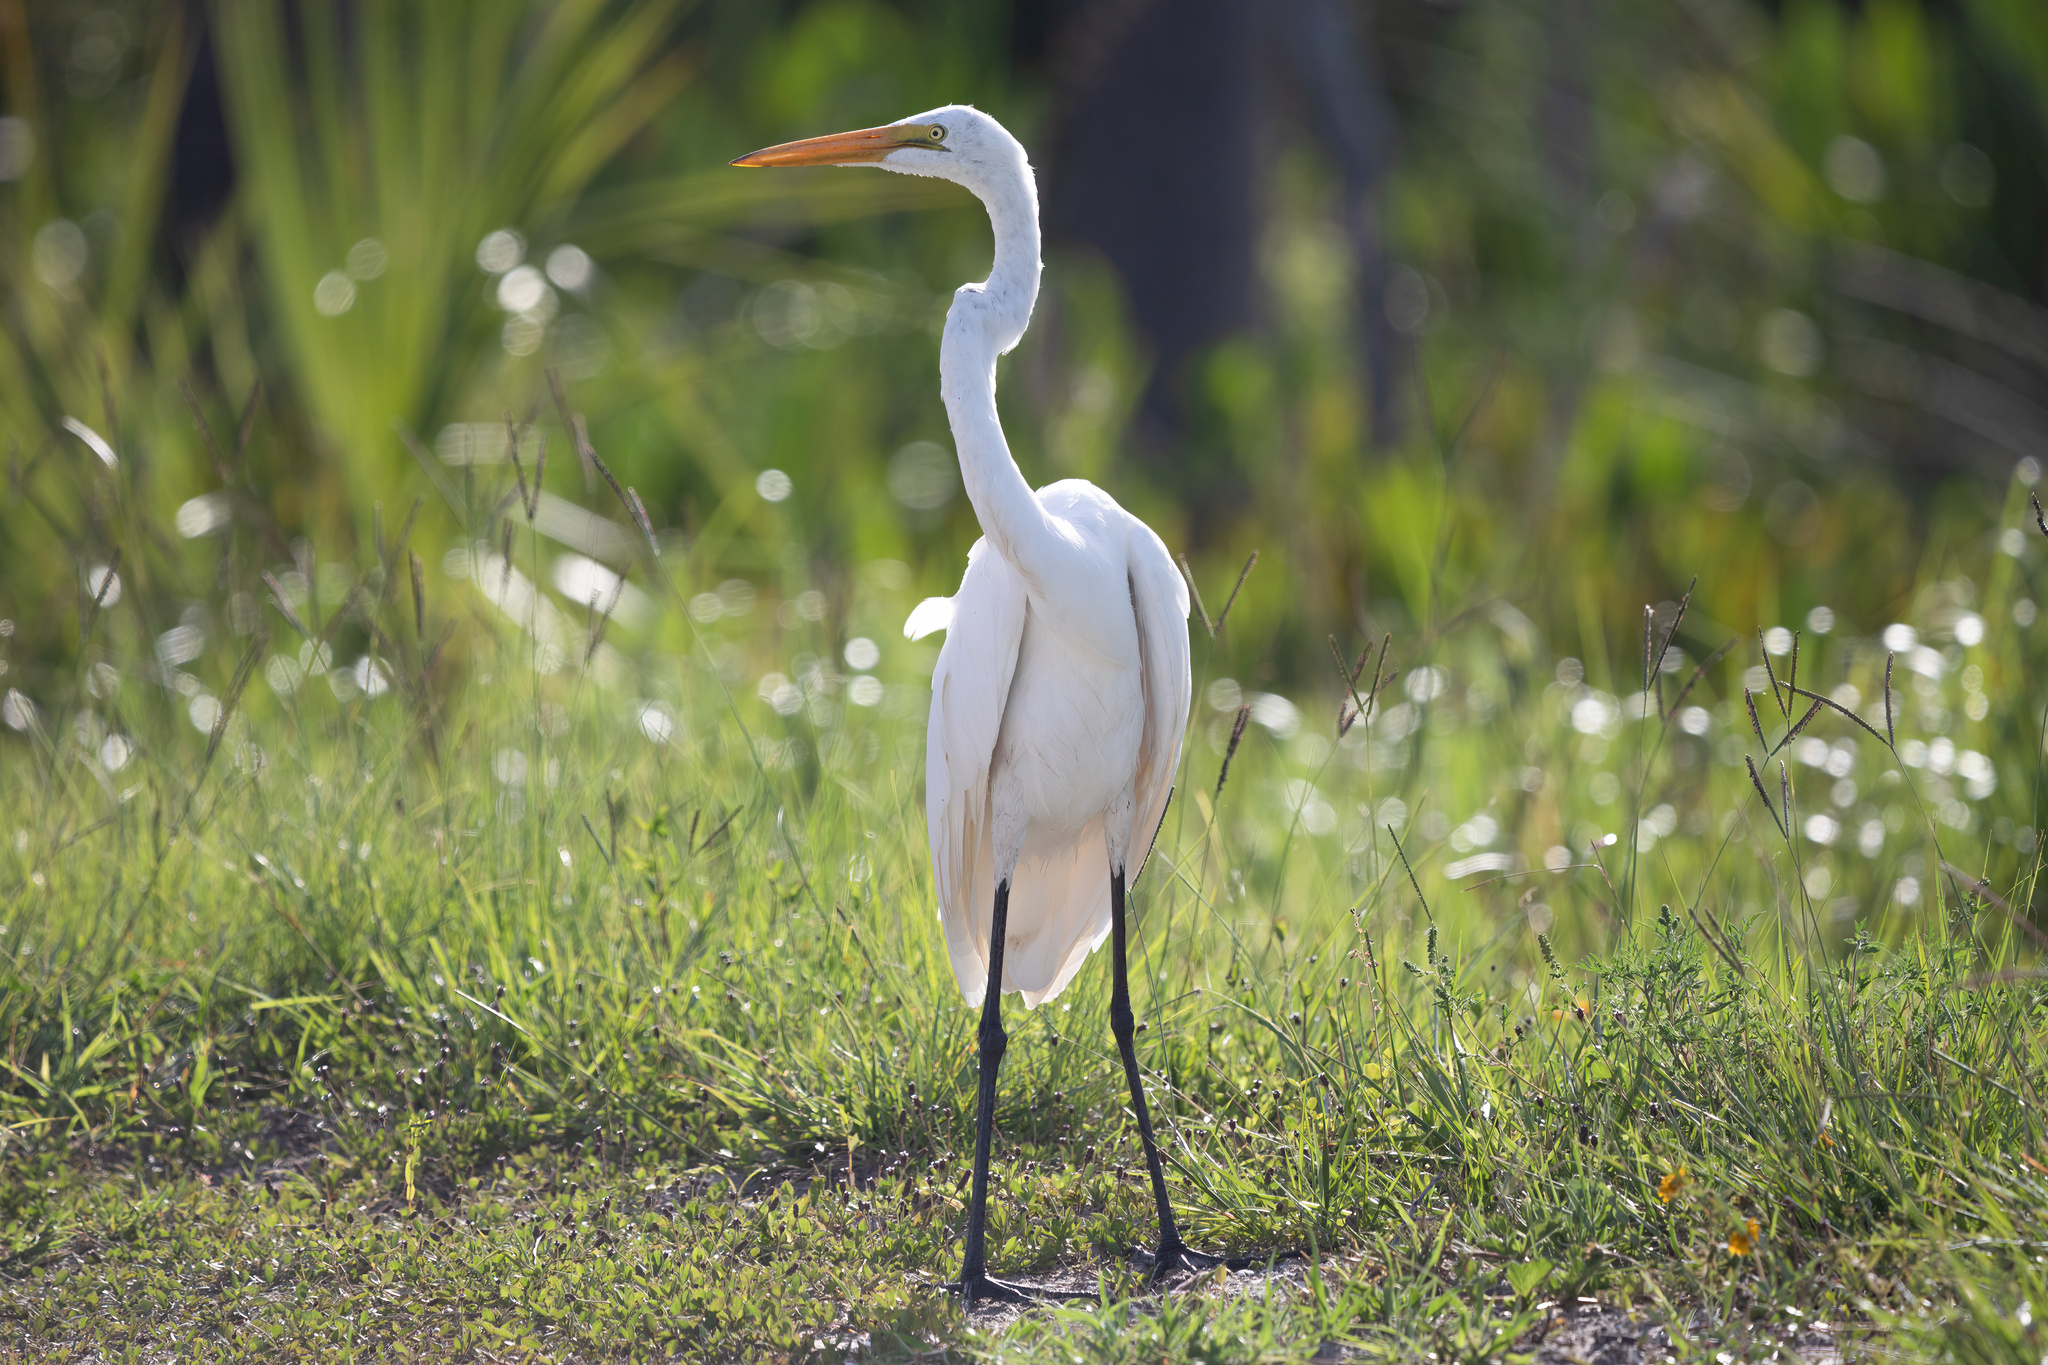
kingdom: Animalia
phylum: Chordata
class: Aves
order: Pelecaniformes
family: Ardeidae
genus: Ardea
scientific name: Ardea alba
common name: Great egret
